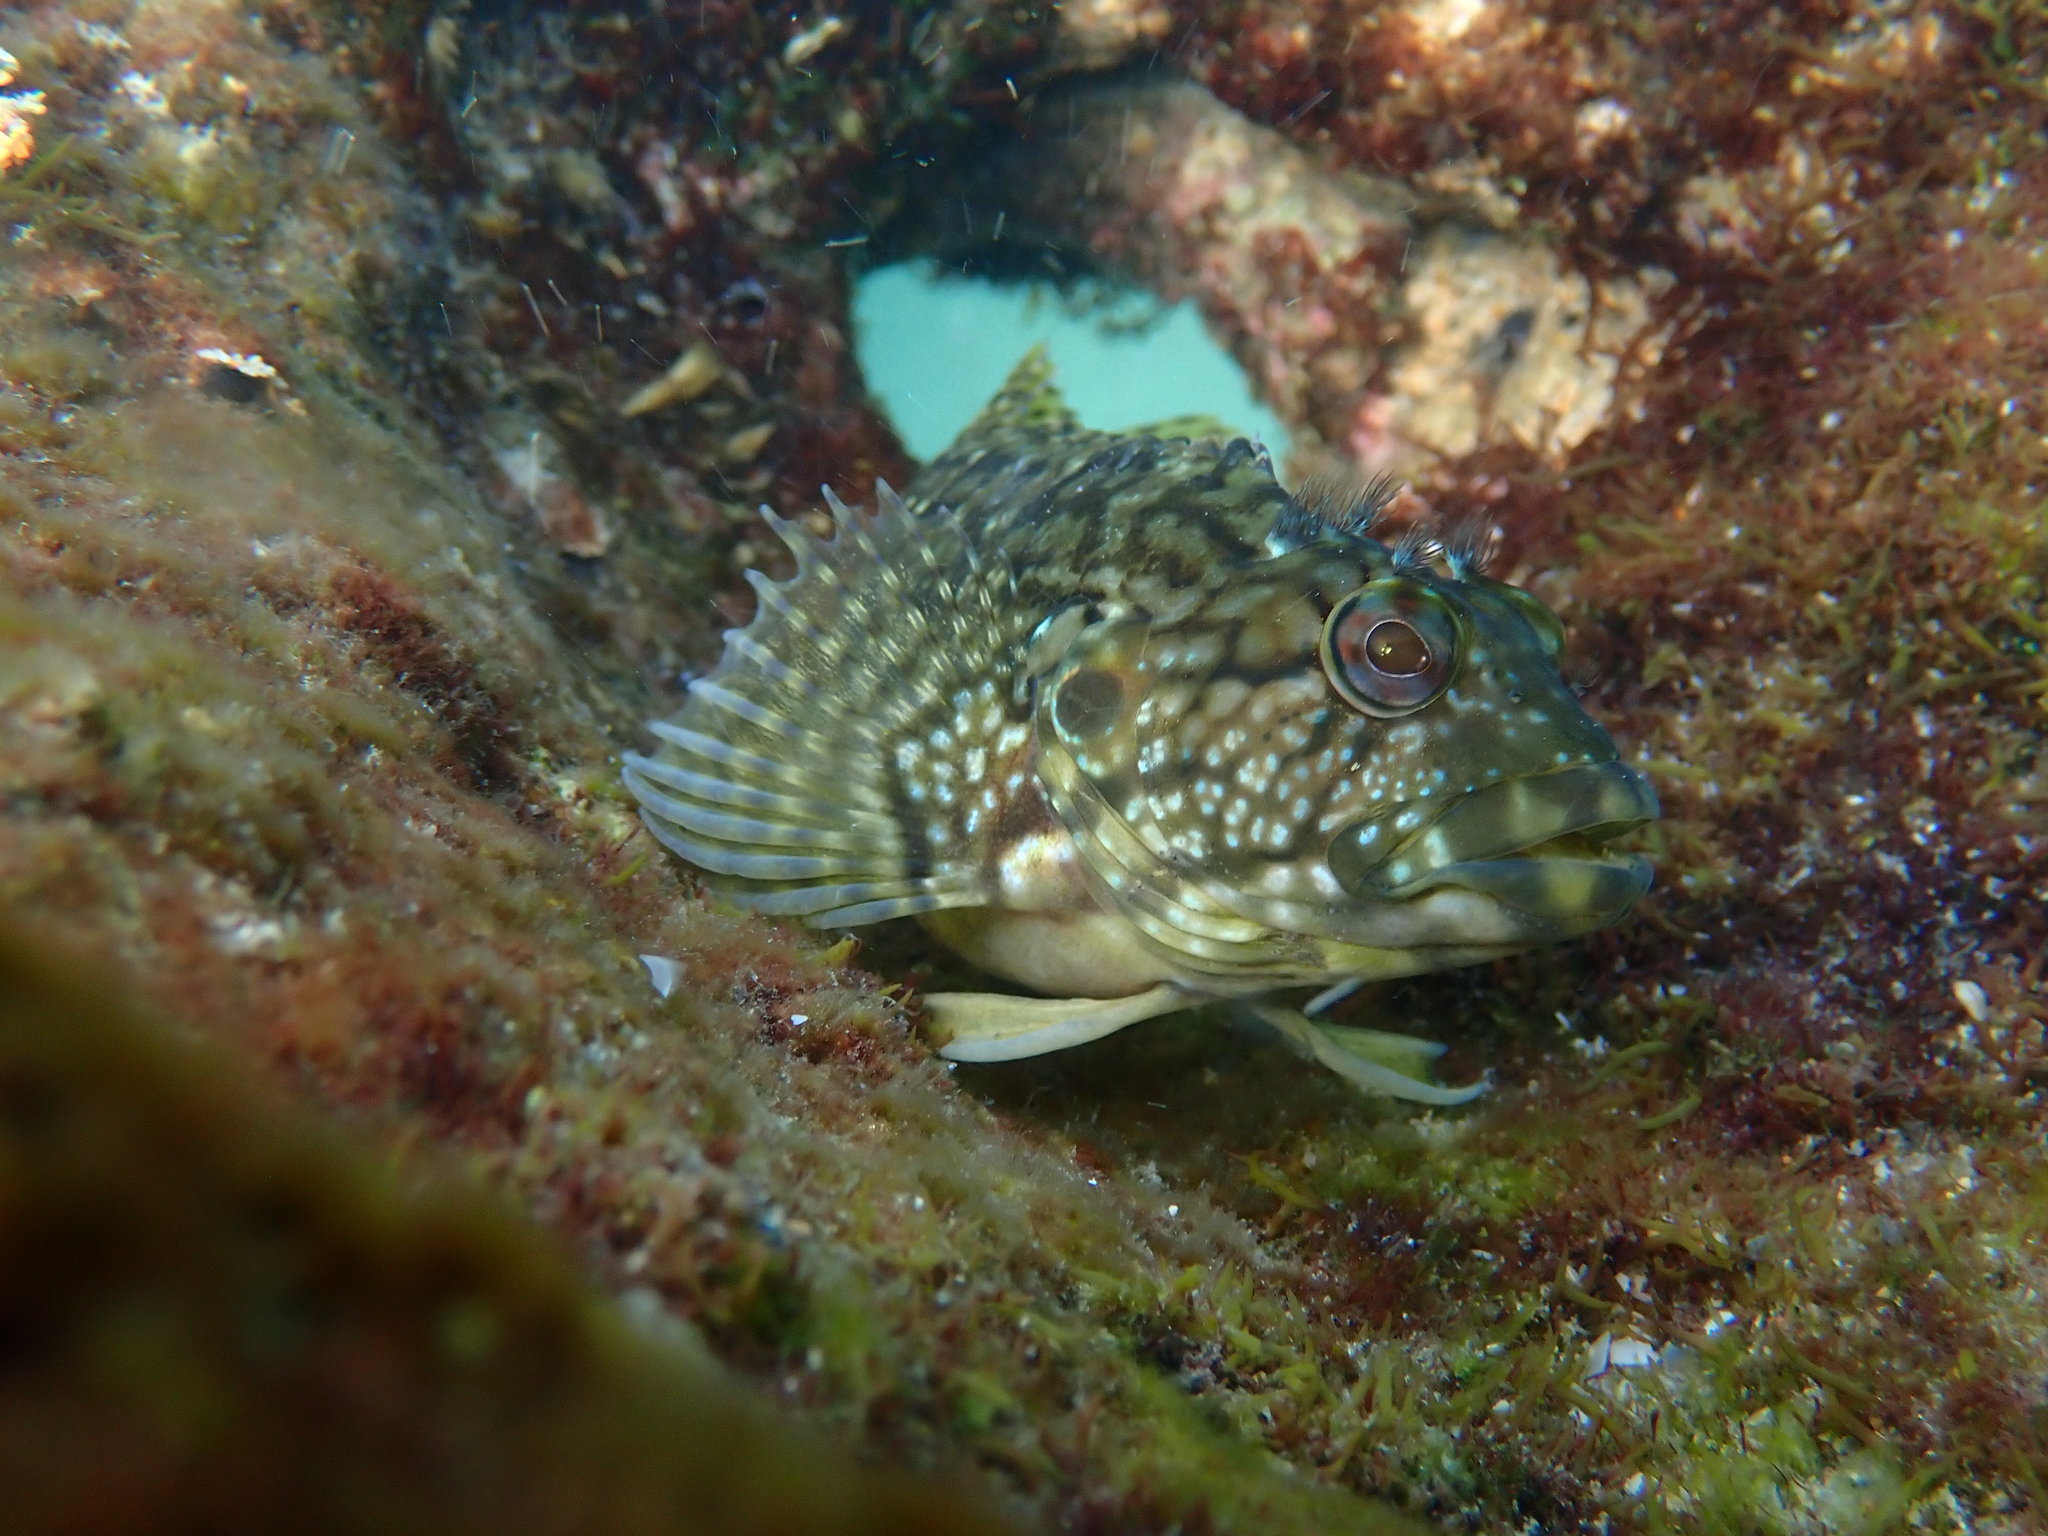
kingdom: Animalia
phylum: Chordata
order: Perciformes
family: Labrisomidae
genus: Labrisomus
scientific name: Labrisomus nuchipinnis
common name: Hairy blenny
